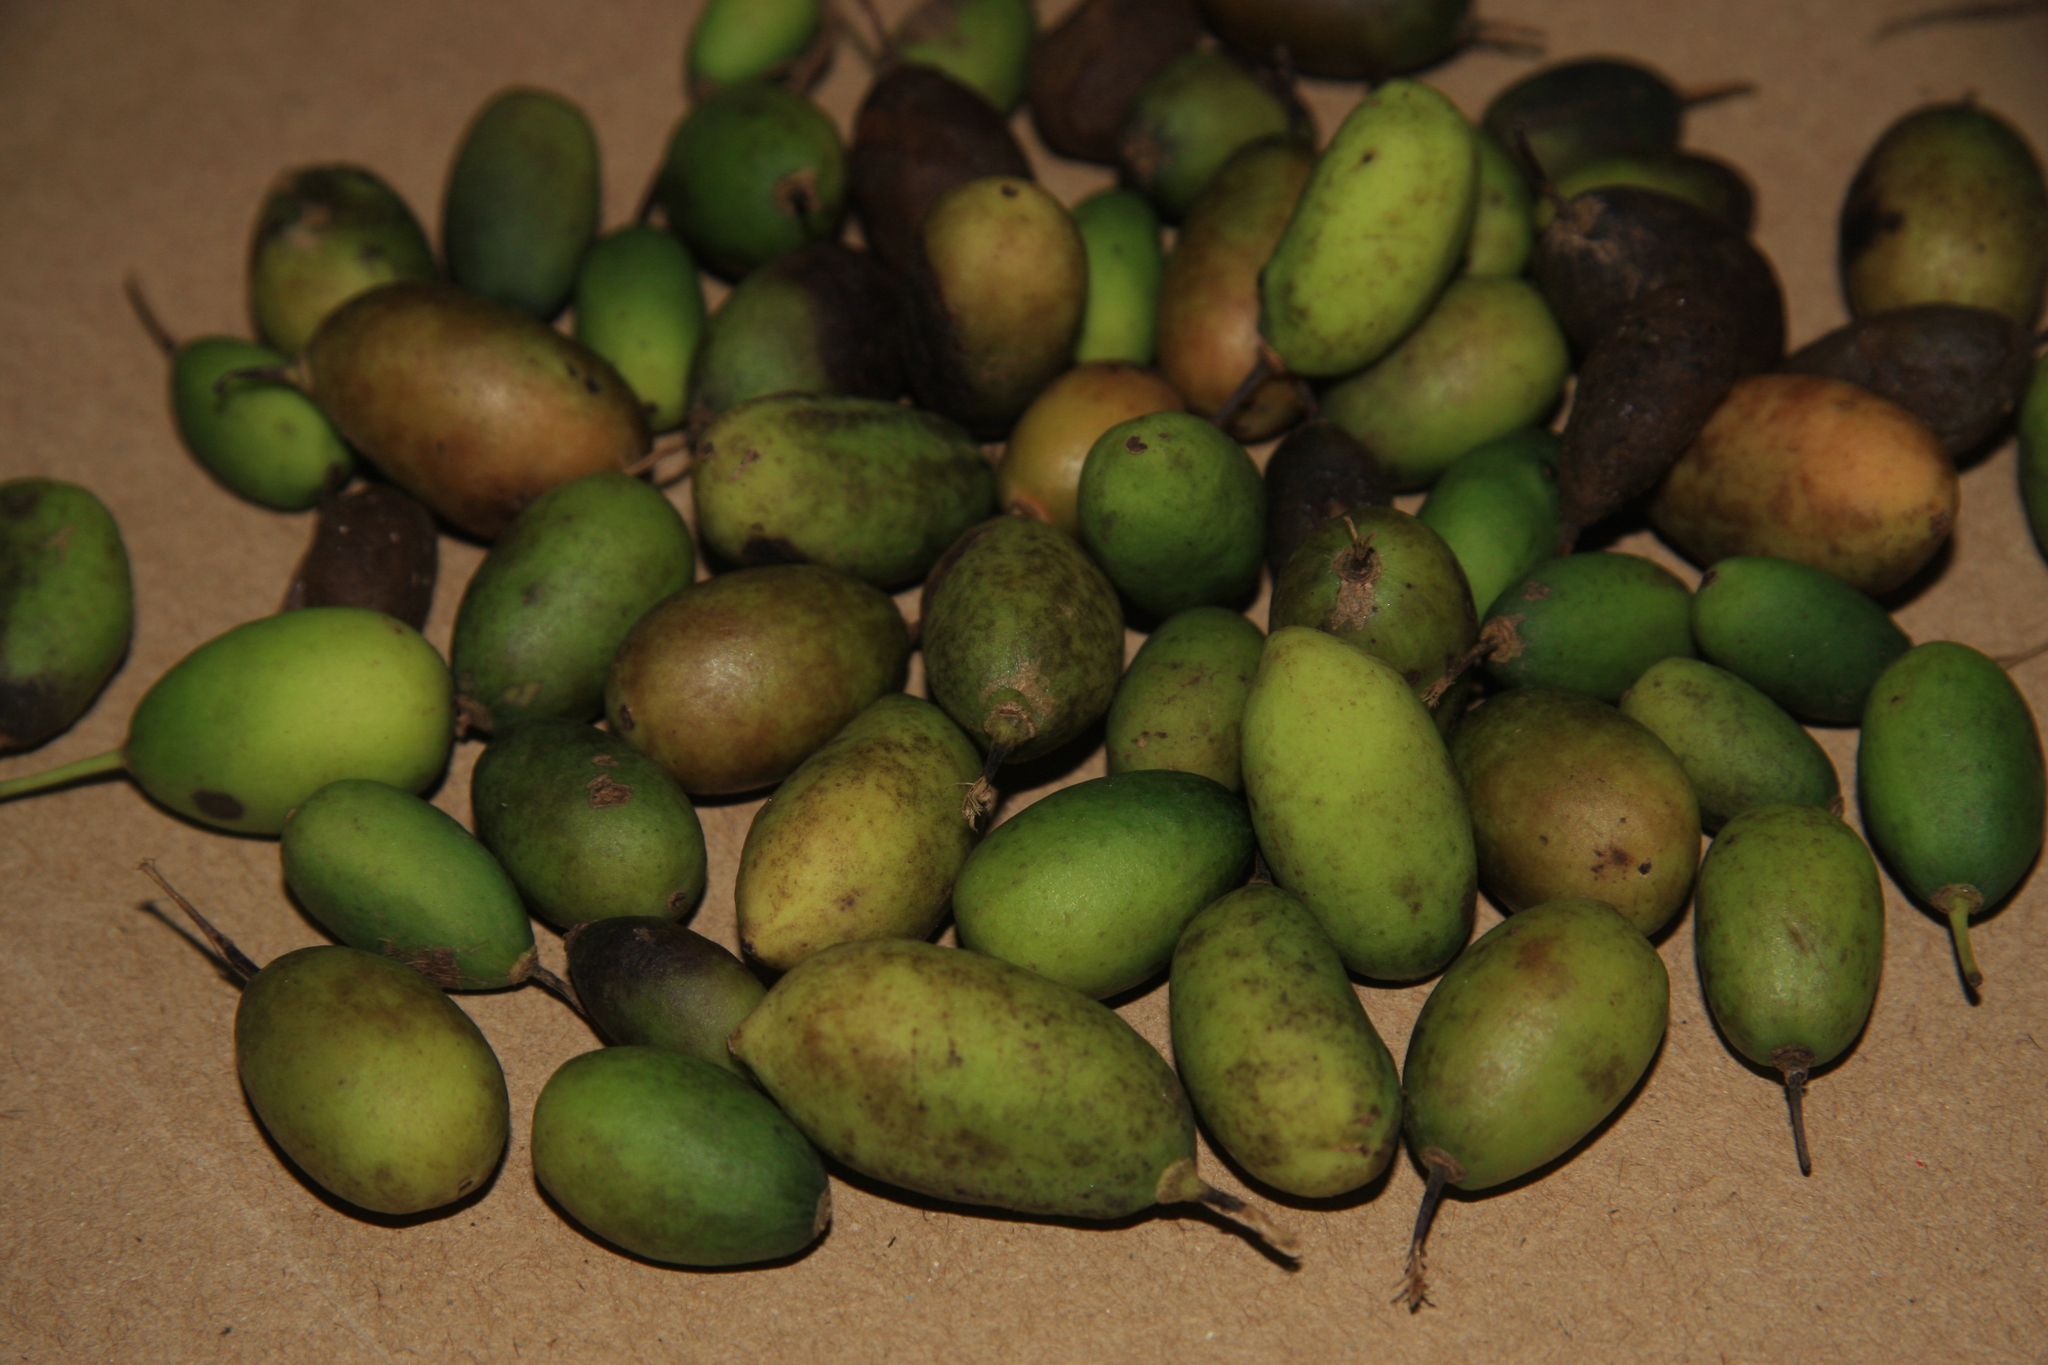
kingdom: Plantae
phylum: Tracheophyta
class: Magnoliopsida
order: Malpighiales
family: Putranjivaceae
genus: Drypetes
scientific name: Drypetes wightii
